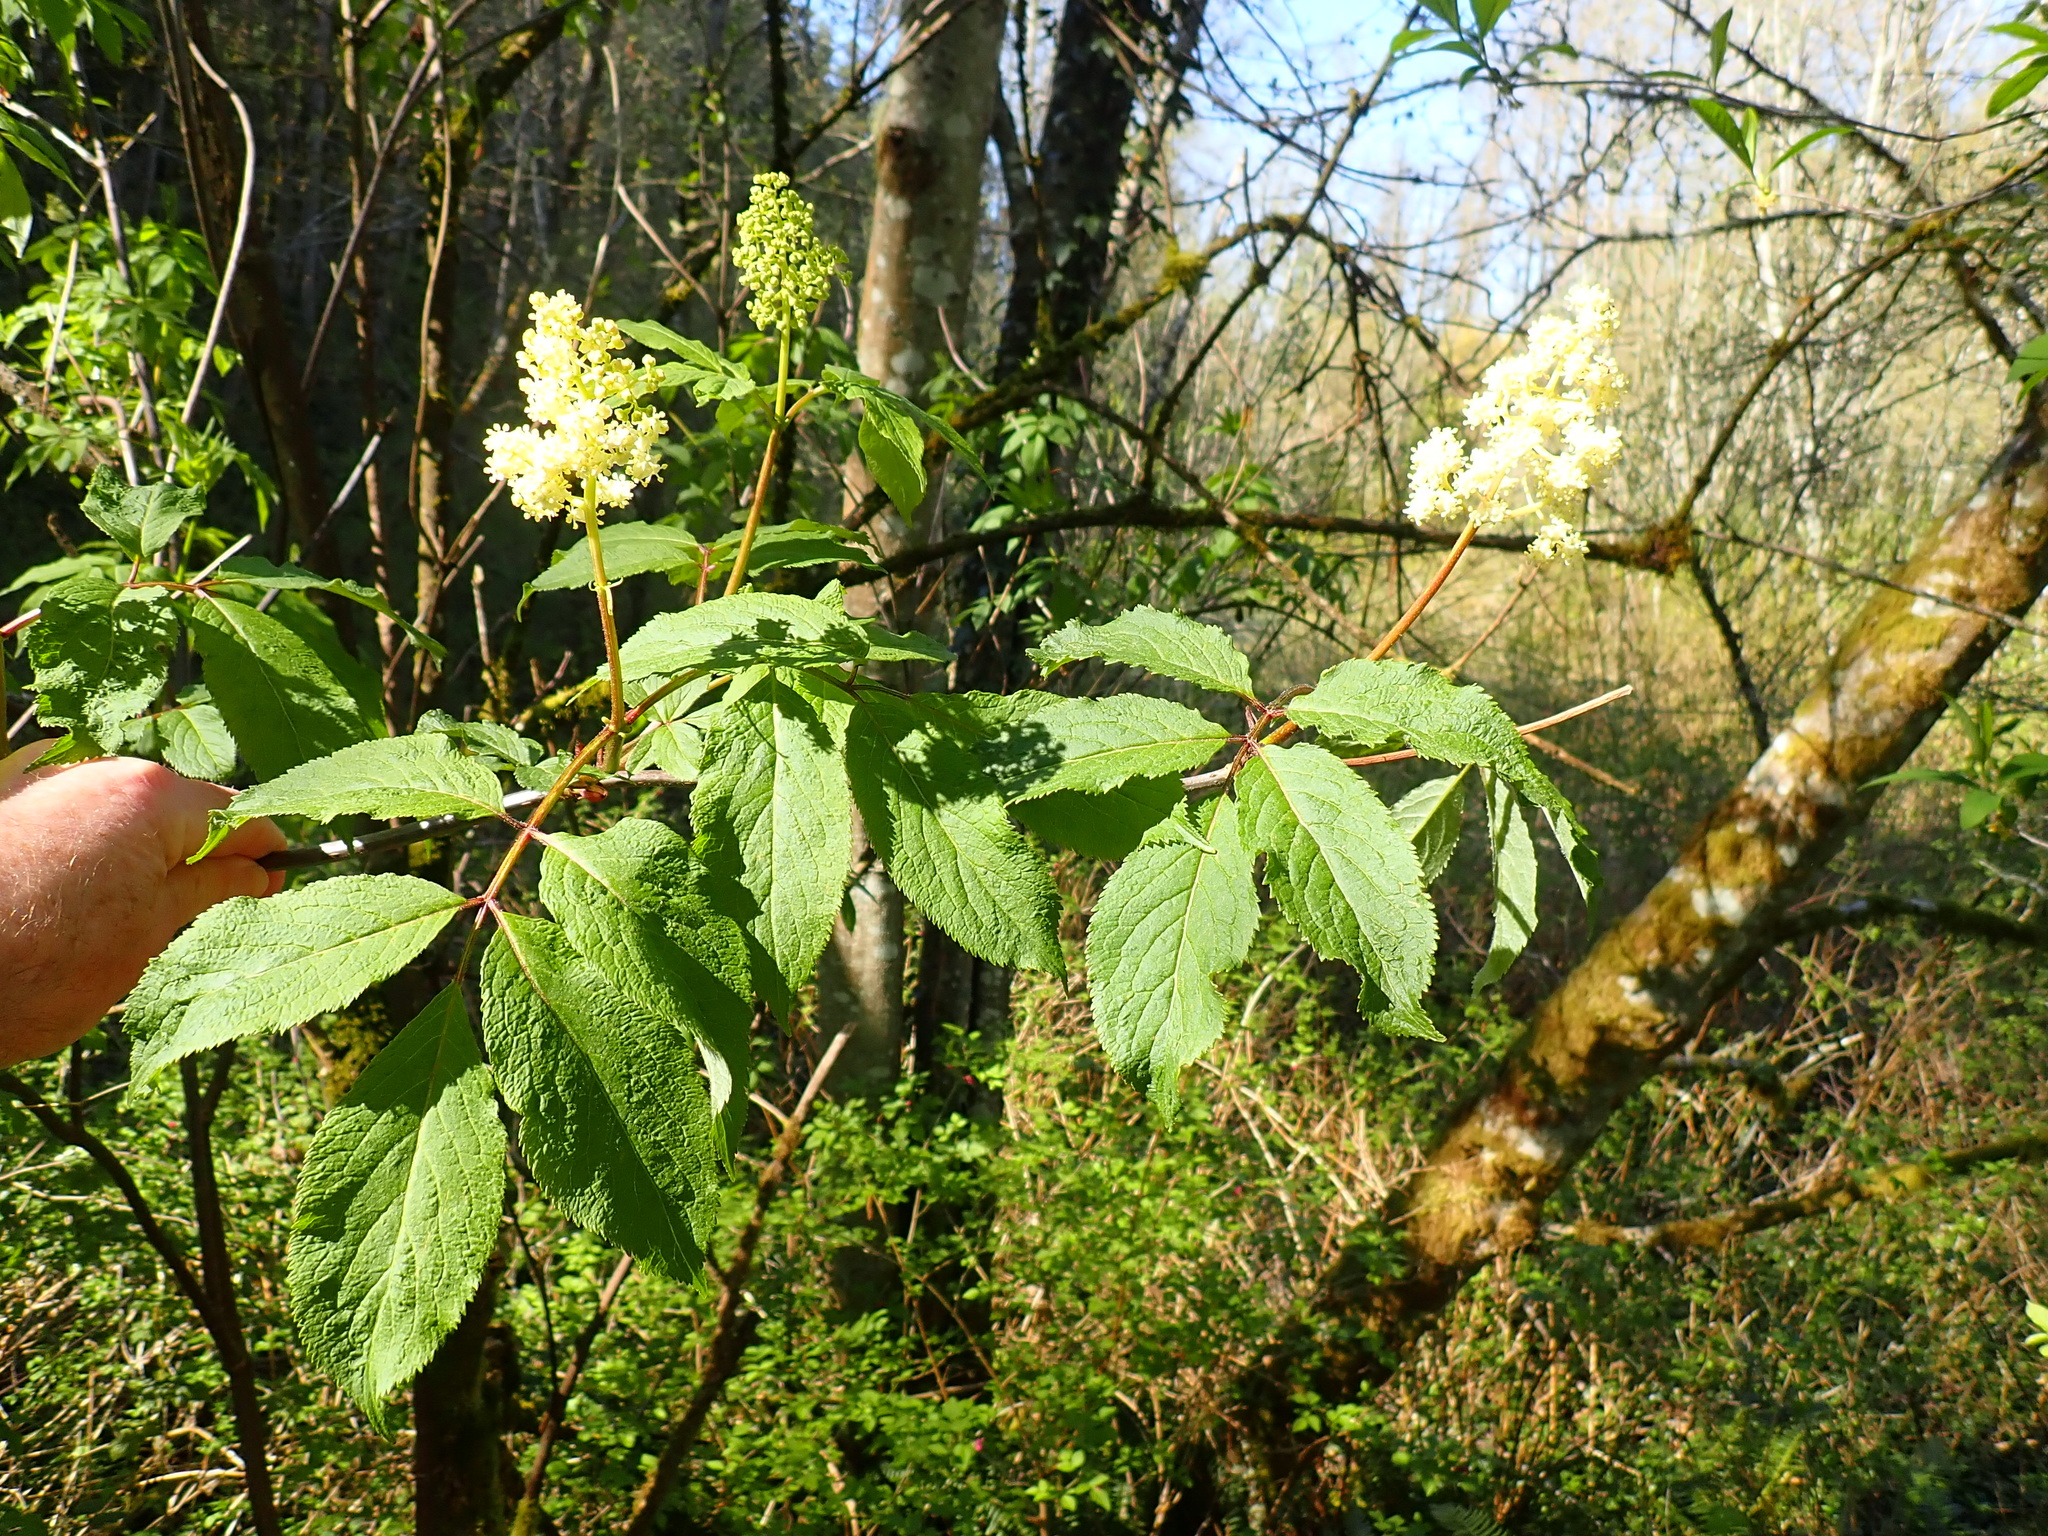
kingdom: Plantae
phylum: Tracheophyta
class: Magnoliopsida
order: Dipsacales
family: Viburnaceae
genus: Sambucus
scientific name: Sambucus racemosa
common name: Red-berried elder
